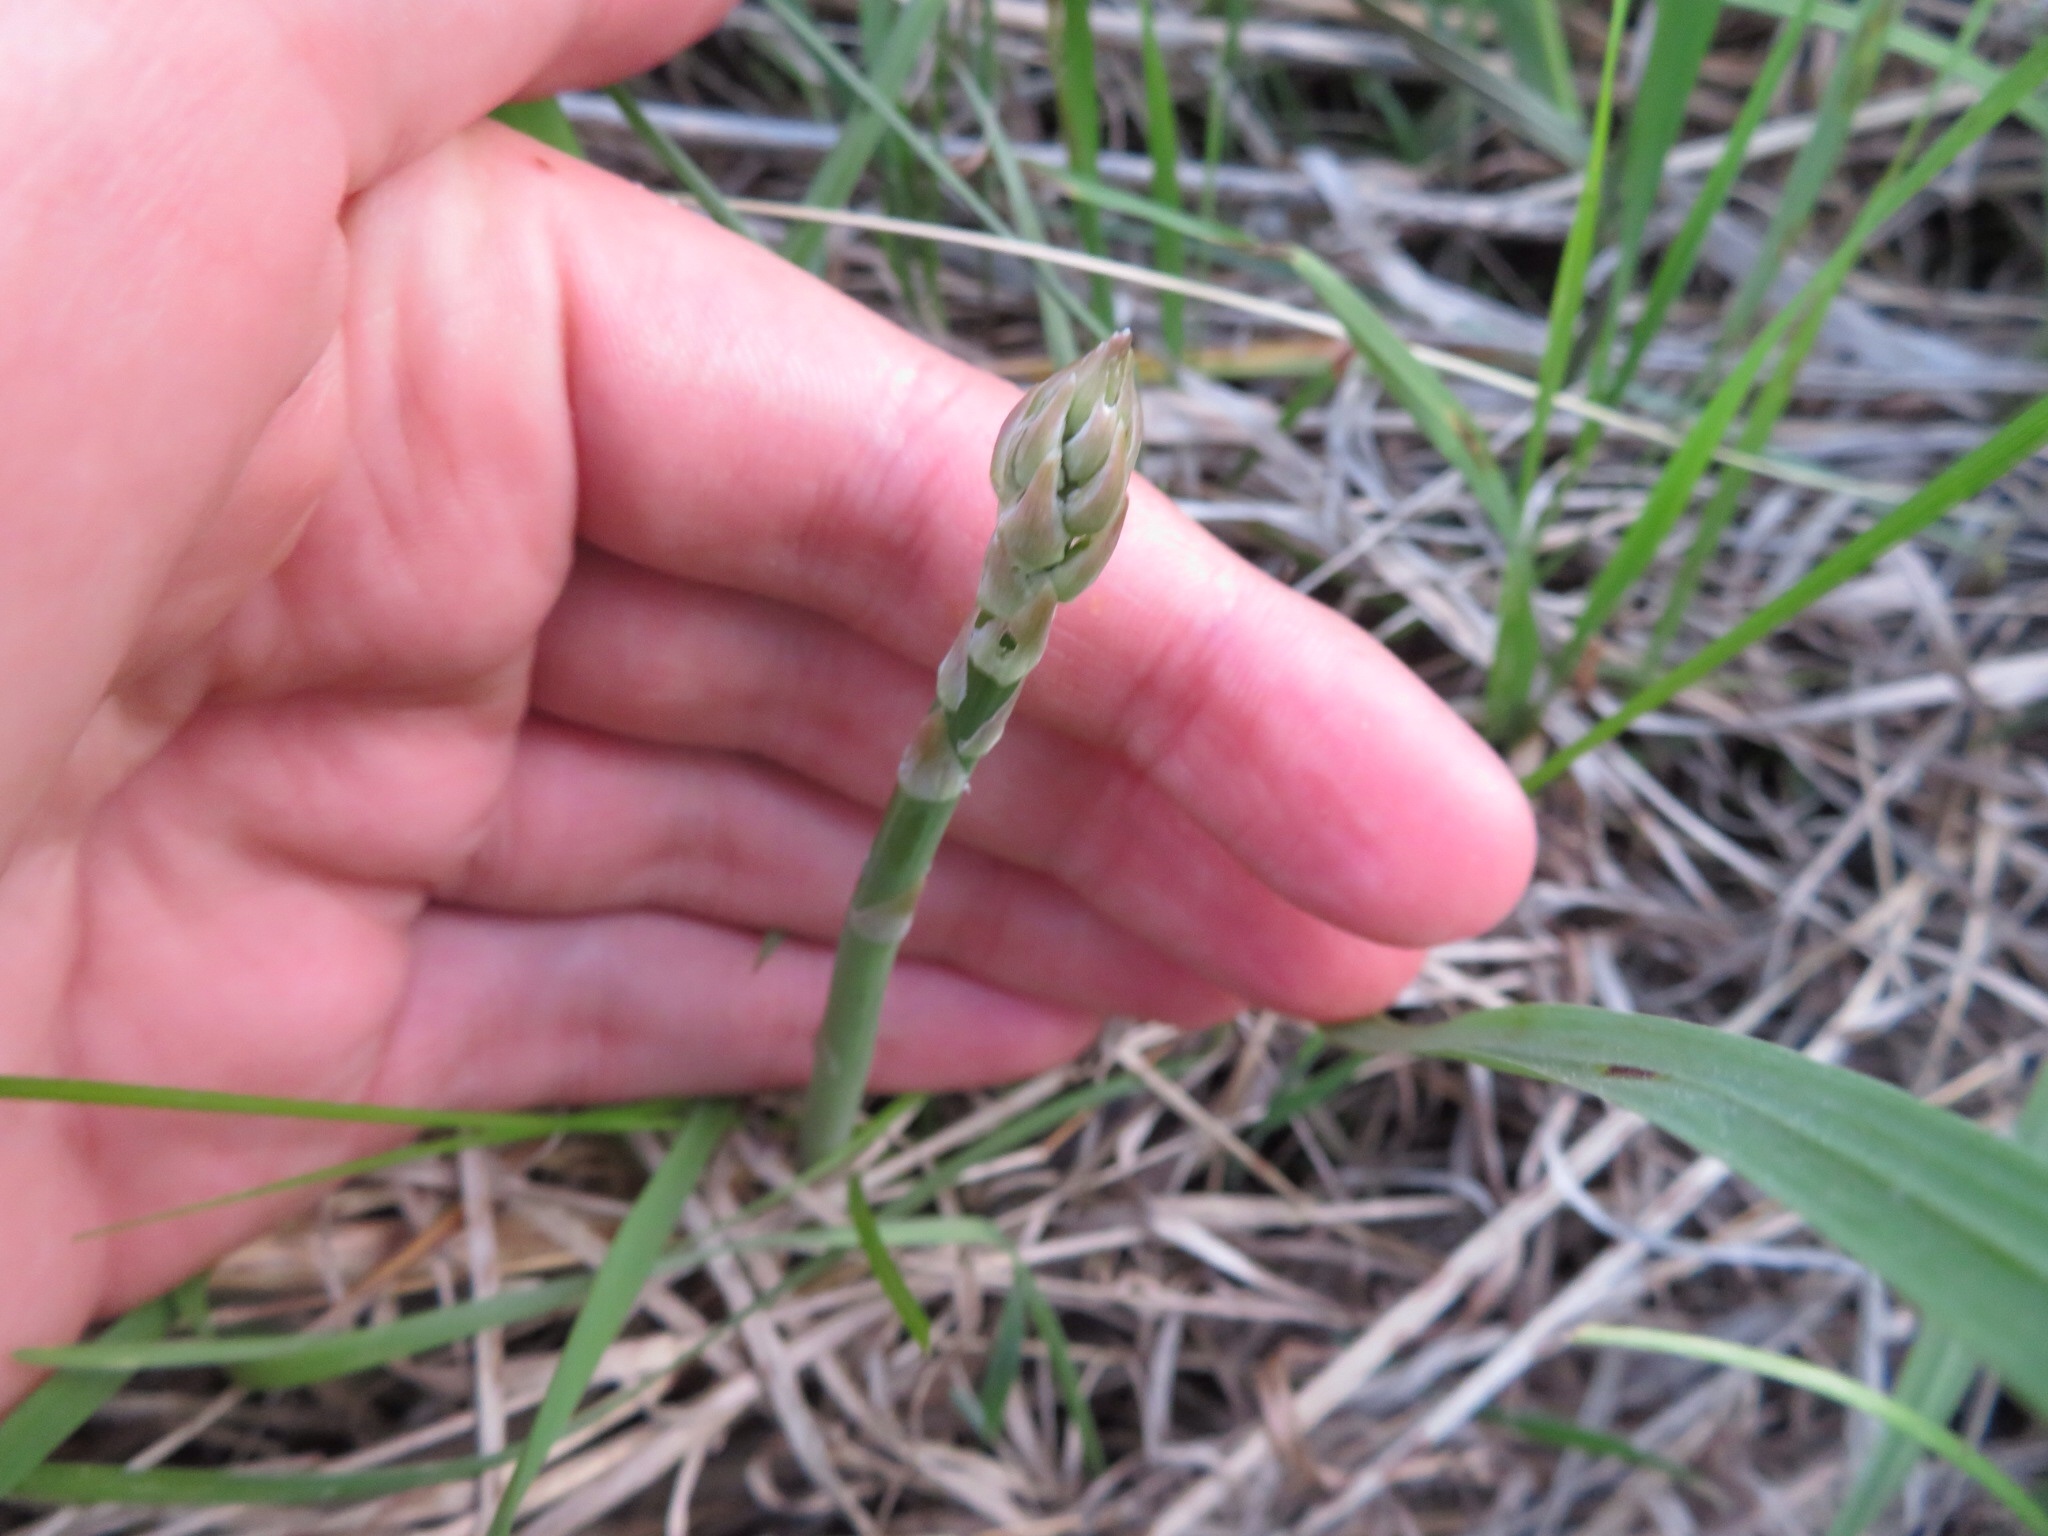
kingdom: Plantae
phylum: Tracheophyta
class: Liliopsida
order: Asparagales
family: Asparagaceae
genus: Asparagus
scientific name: Asparagus officinalis
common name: Garden asparagus
